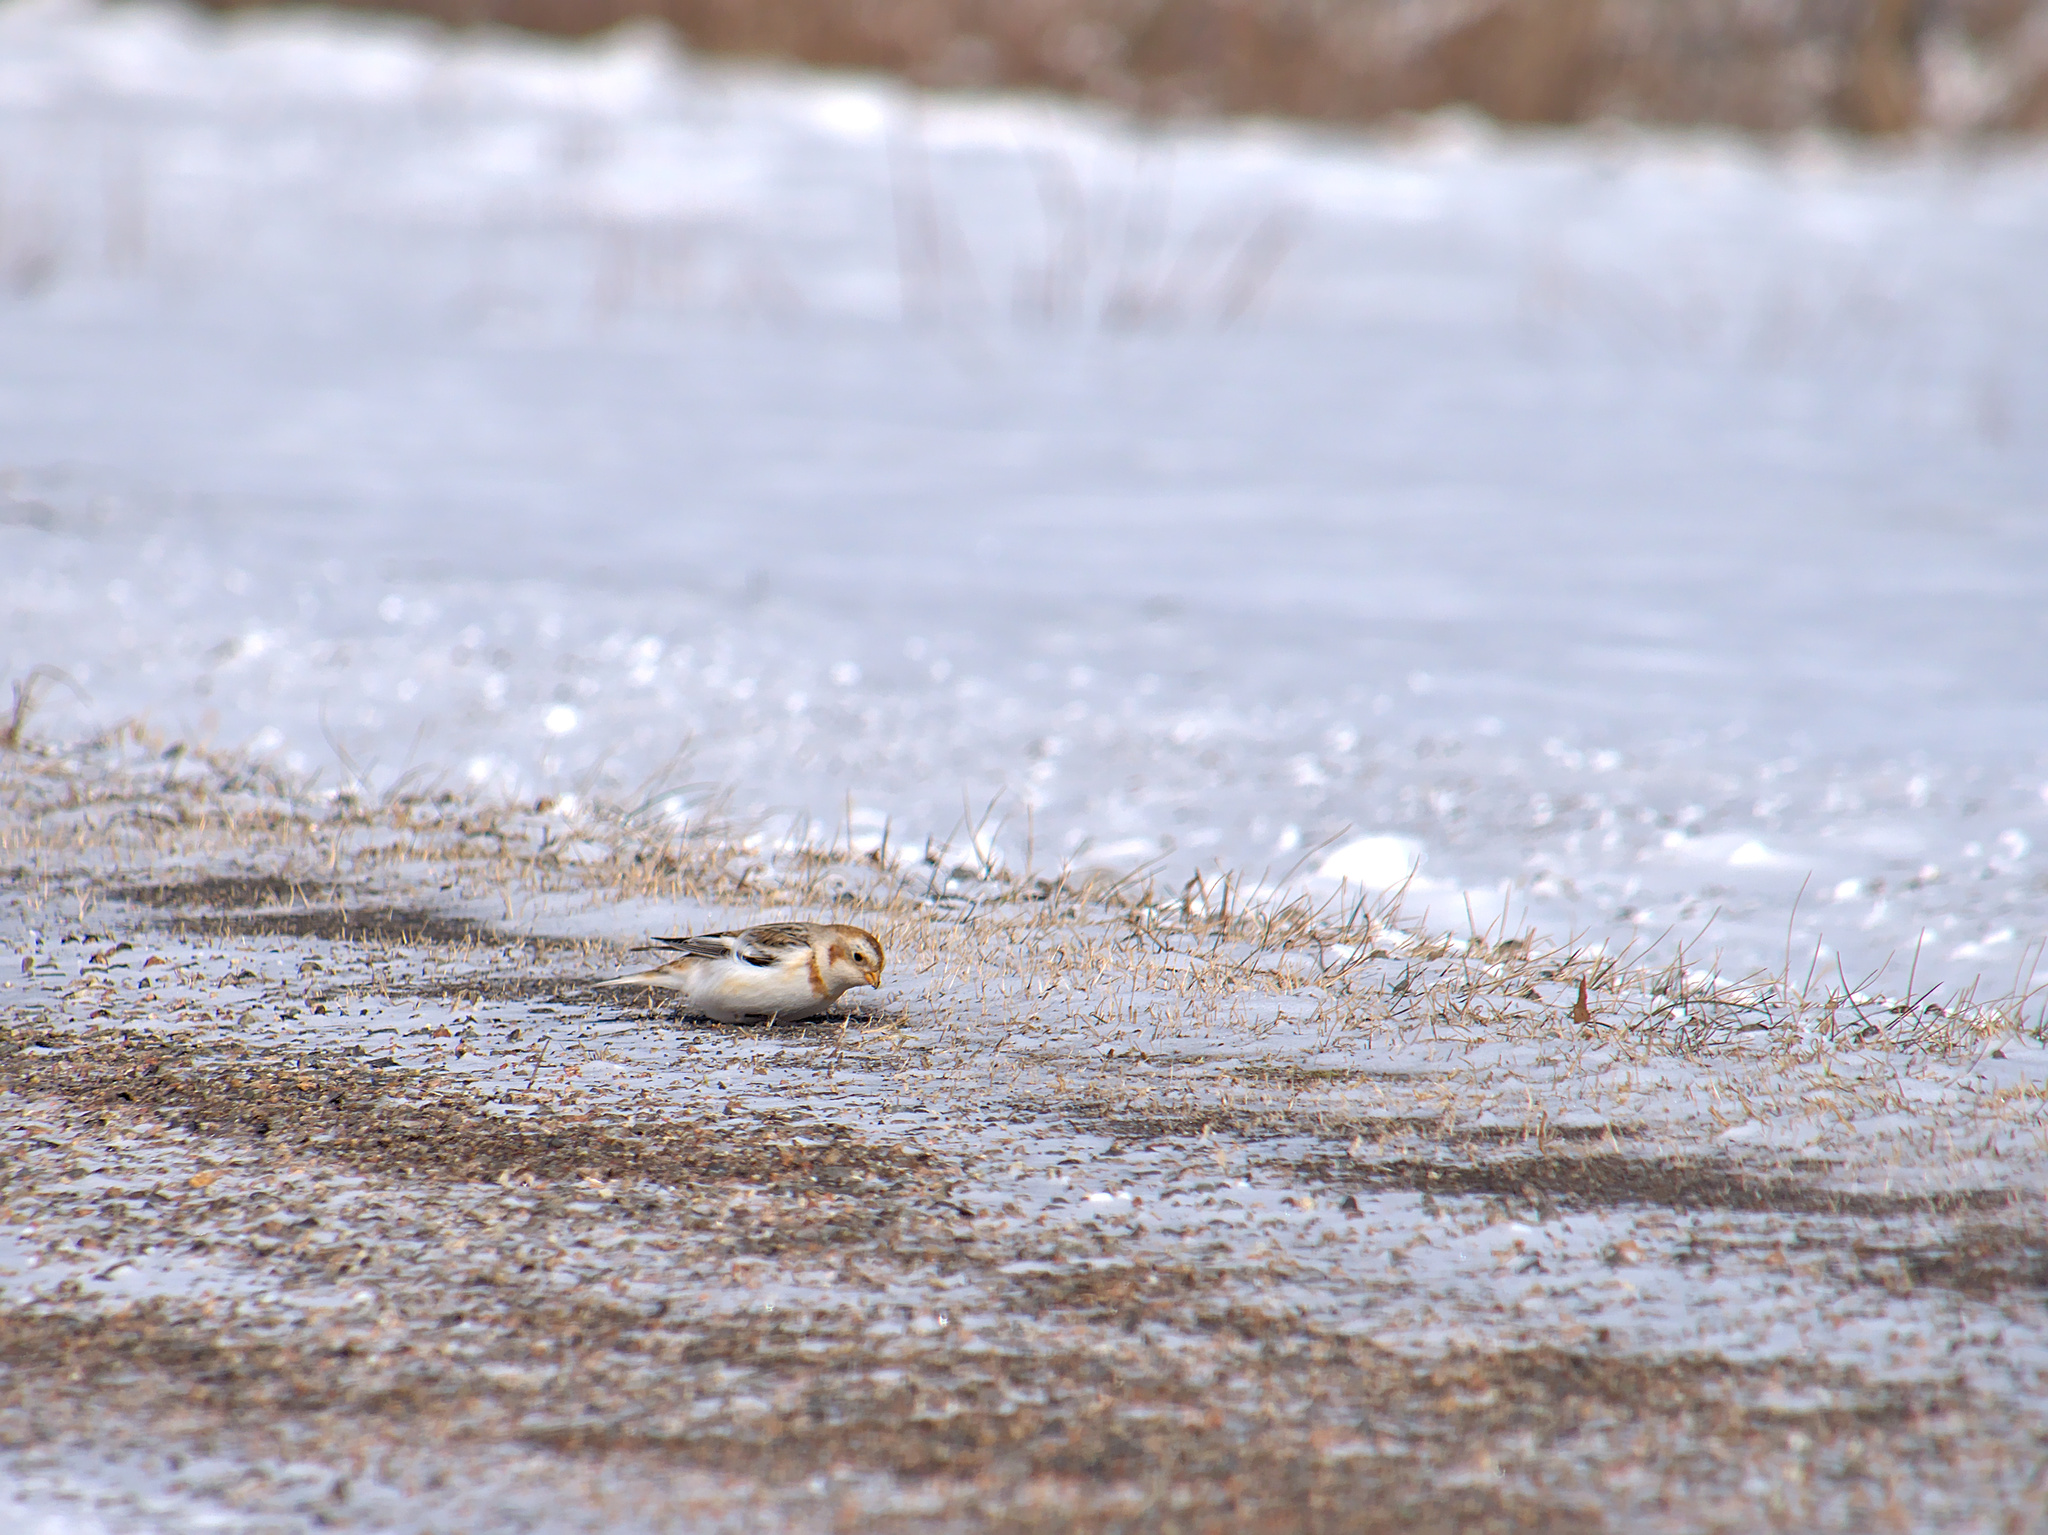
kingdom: Animalia
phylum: Chordata
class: Aves
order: Passeriformes
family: Calcariidae
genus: Plectrophenax
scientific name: Plectrophenax nivalis
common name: Snow bunting
